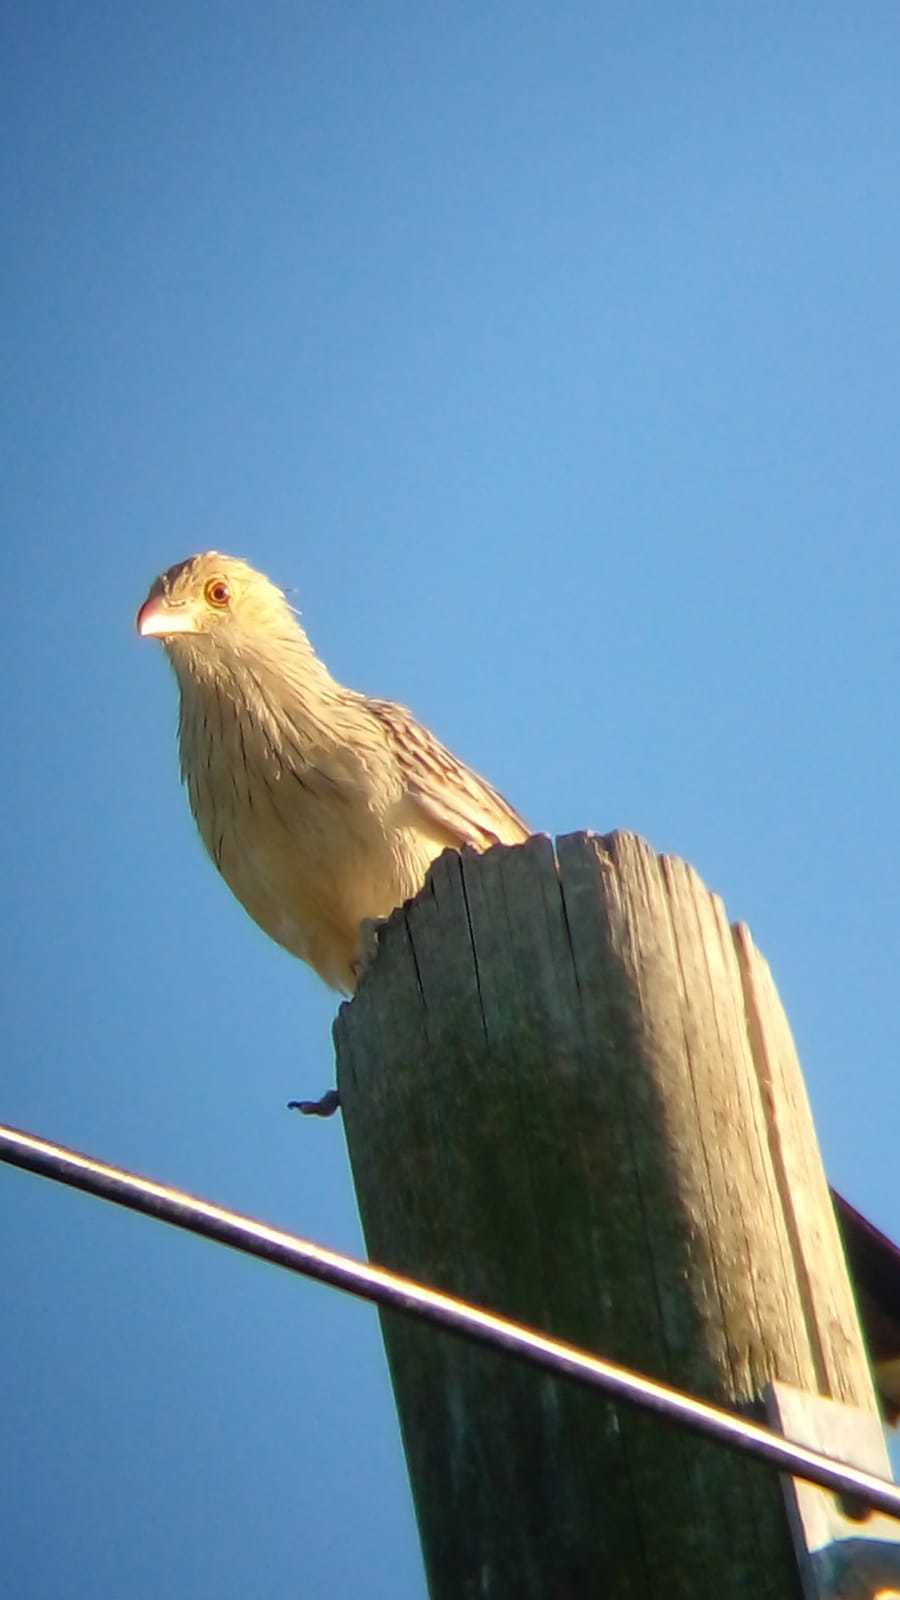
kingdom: Animalia
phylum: Chordata
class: Aves
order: Cuculiformes
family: Cuculidae
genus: Guira
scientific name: Guira guira
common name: Guira cuckoo
